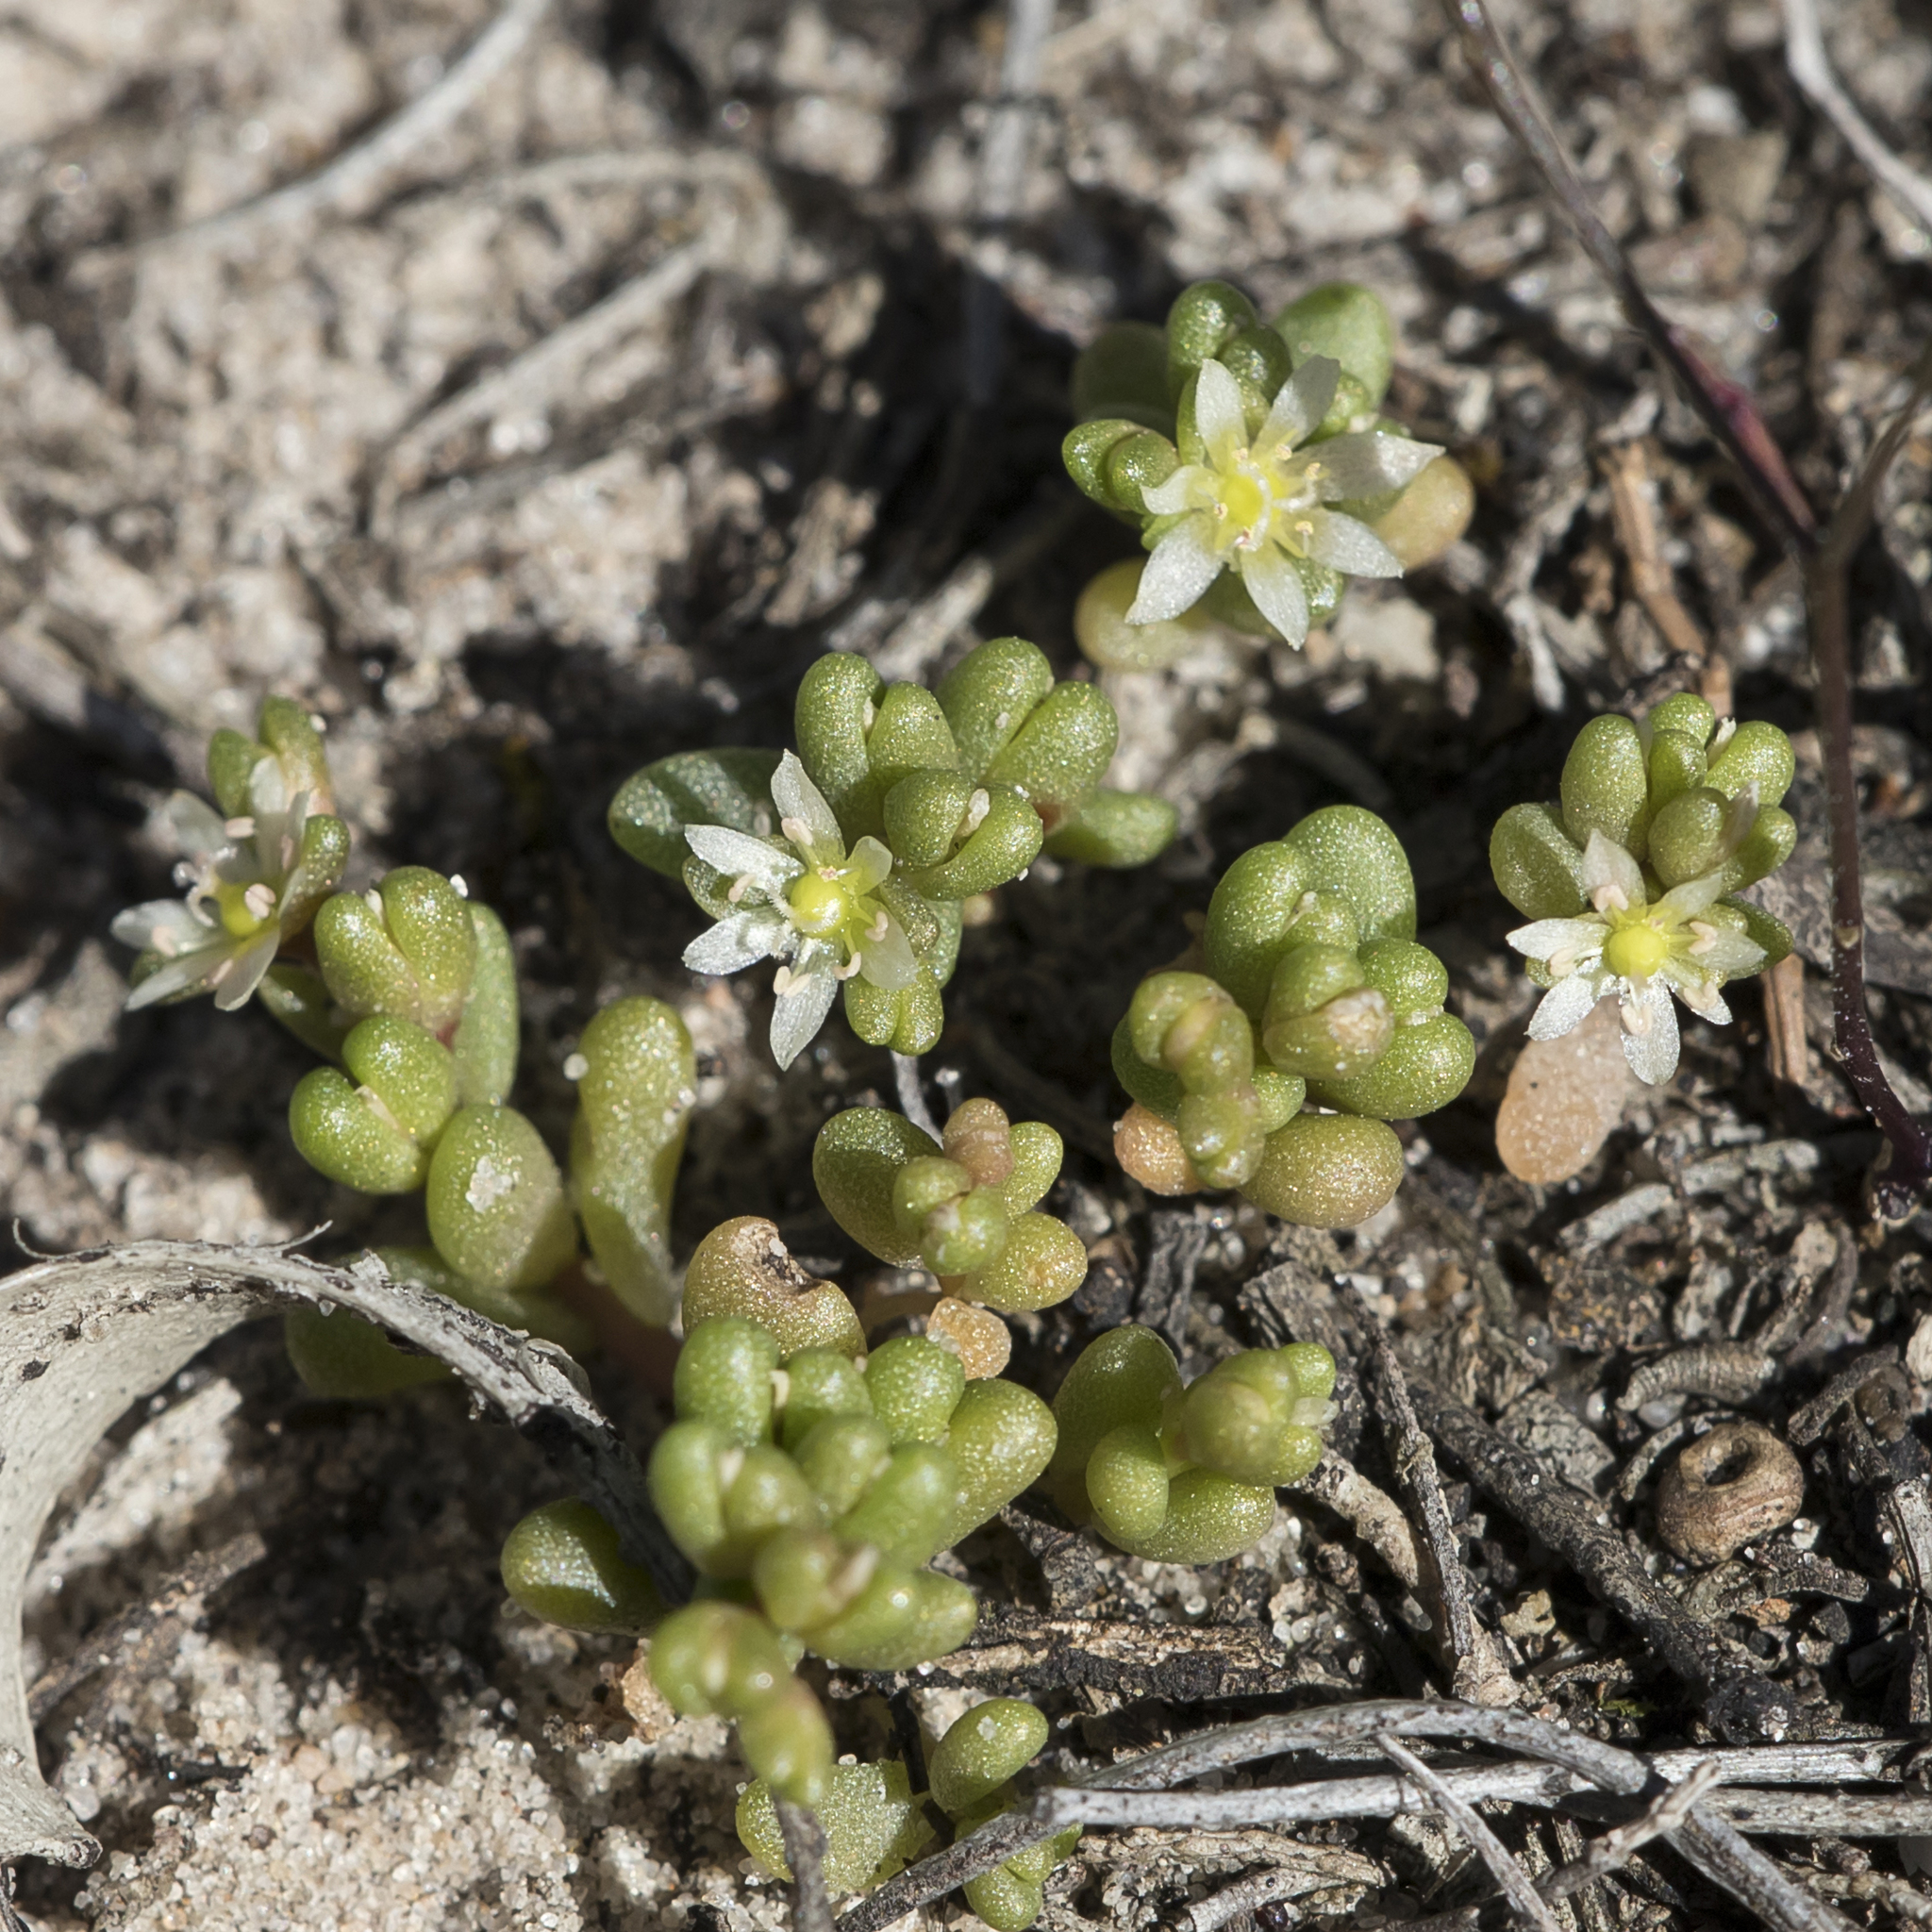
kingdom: Plantae
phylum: Tracheophyta
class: Magnoliopsida
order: Caryophyllales
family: Montiaceae
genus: Rumicastrum
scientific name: Rumicastrum granuliferum
